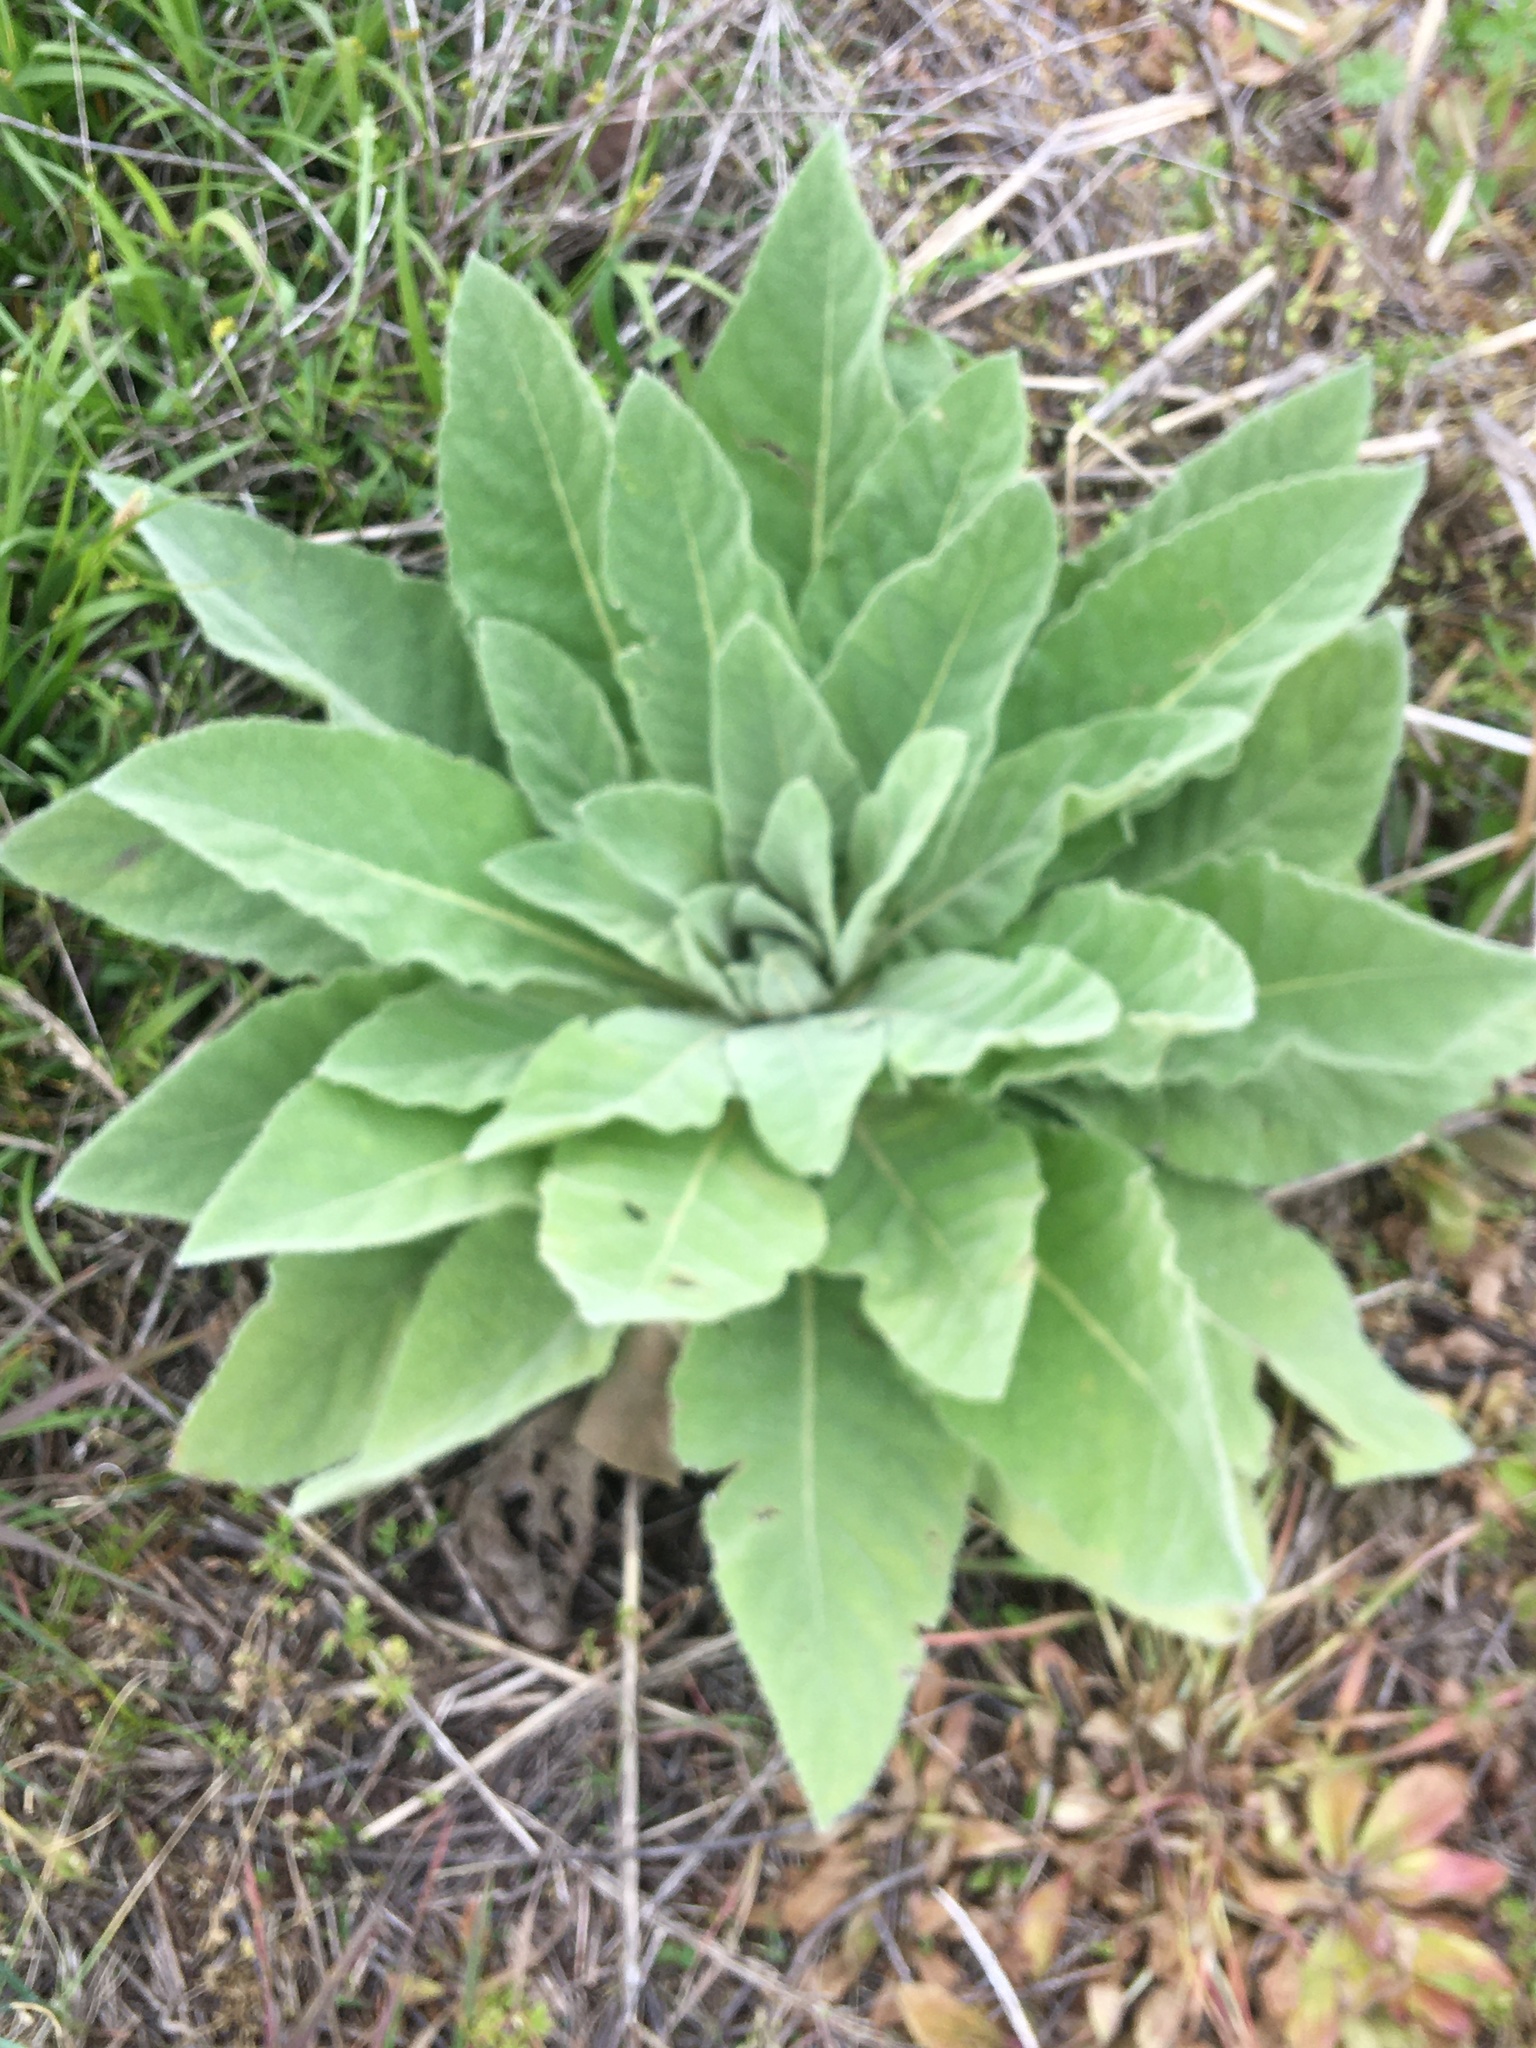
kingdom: Plantae
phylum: Tracheophyta
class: Magnoliopsida
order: Lamiales
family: Scrophulariaceae
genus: Verbascum
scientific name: Verbascum thapsus
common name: Common mullein
